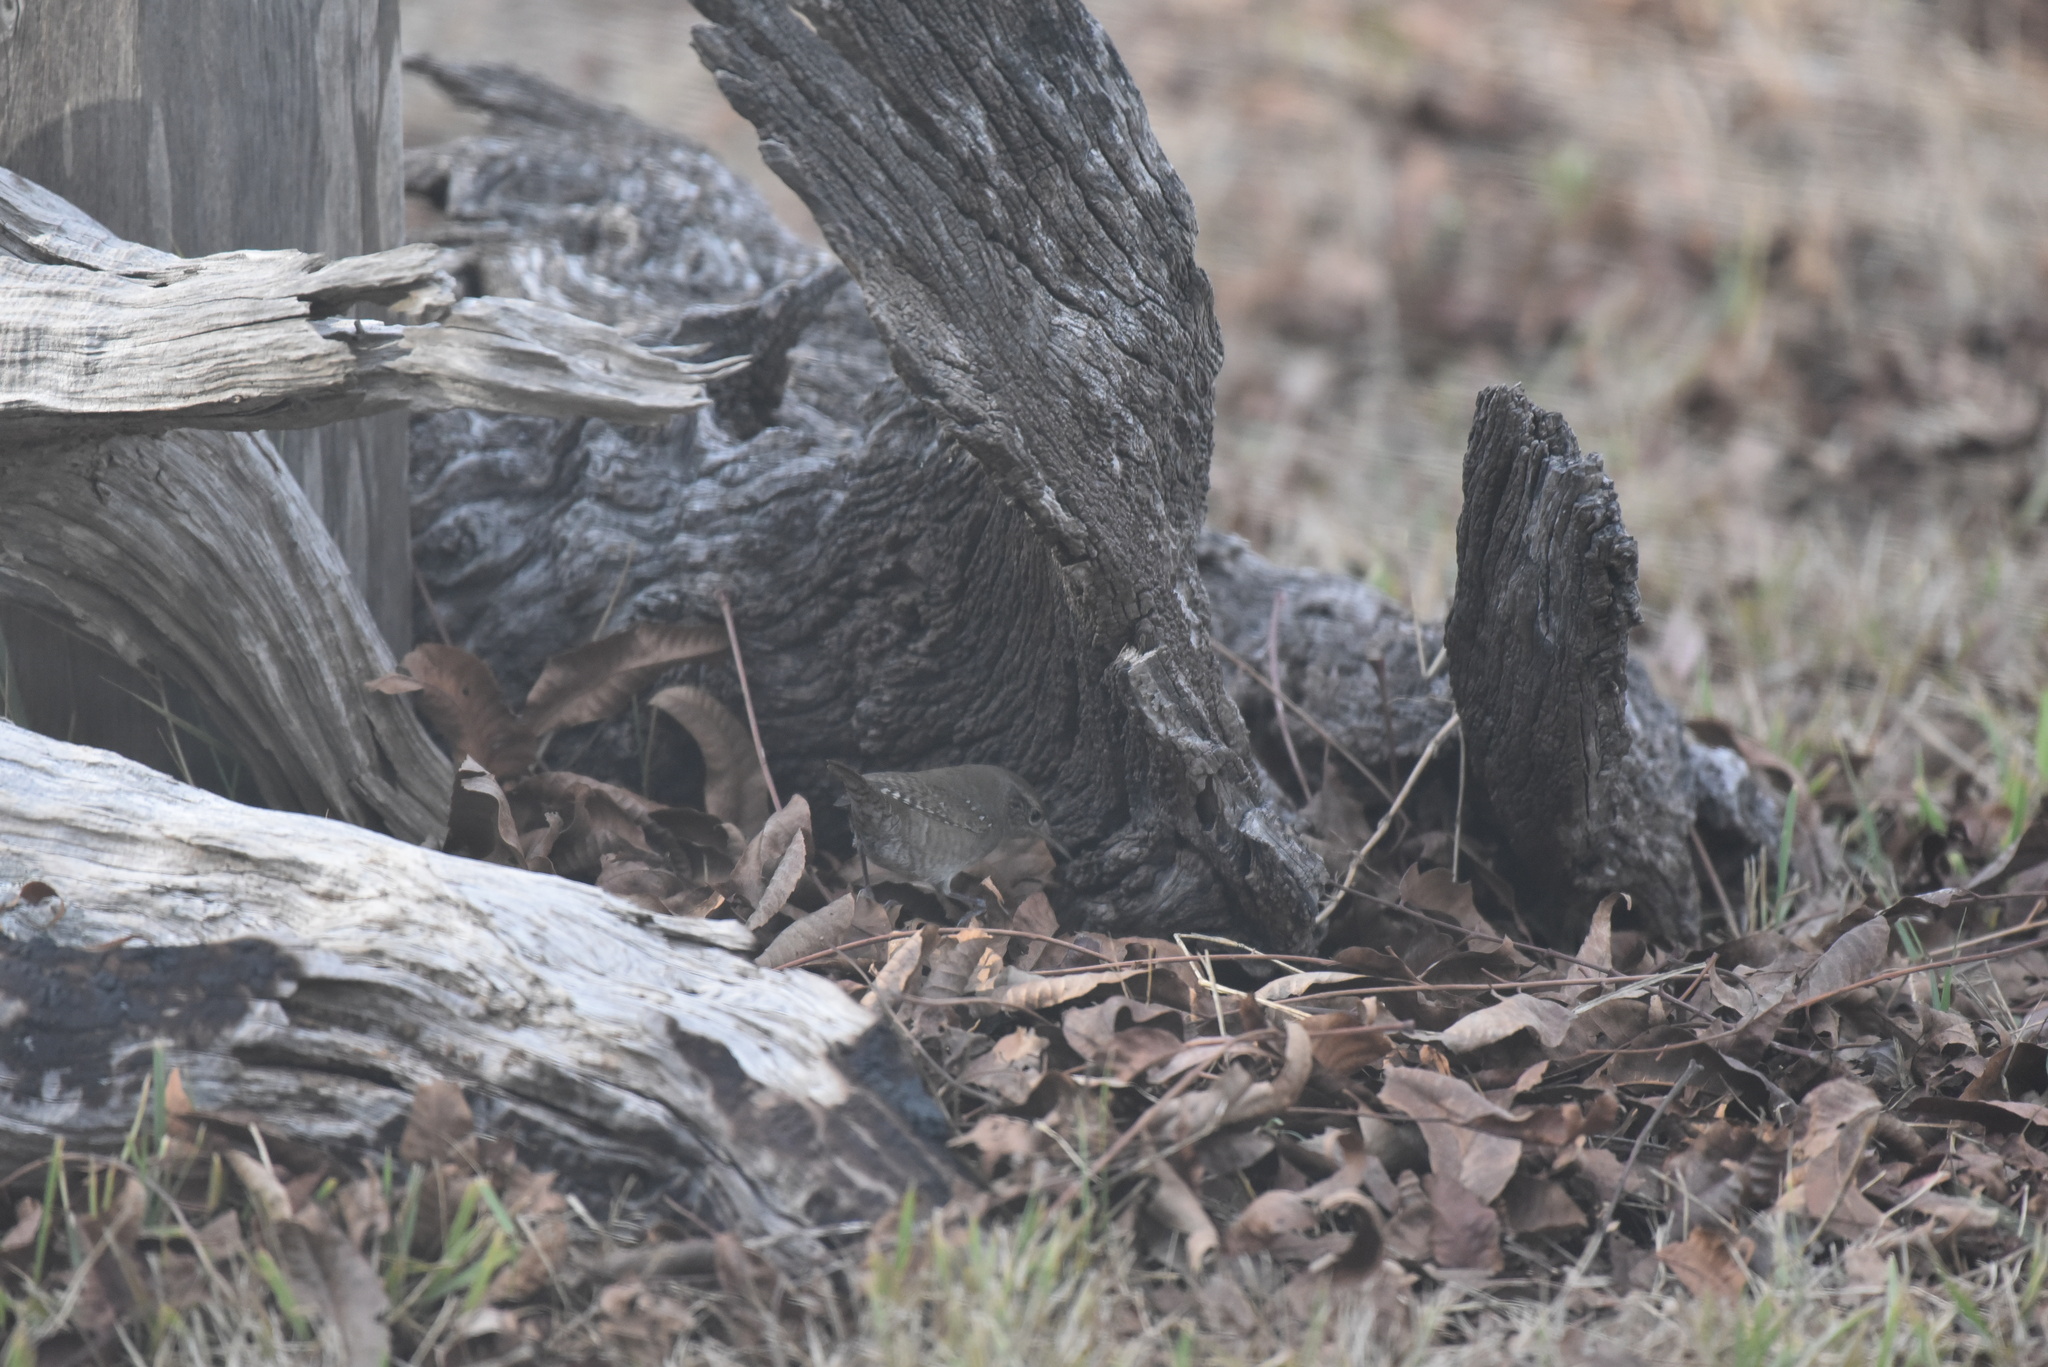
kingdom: Animalia
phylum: Chordata
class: Aves
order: Passeriformes
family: Troglodytidae
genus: Troglodytes
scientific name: Troglodytes aedon
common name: House wren
